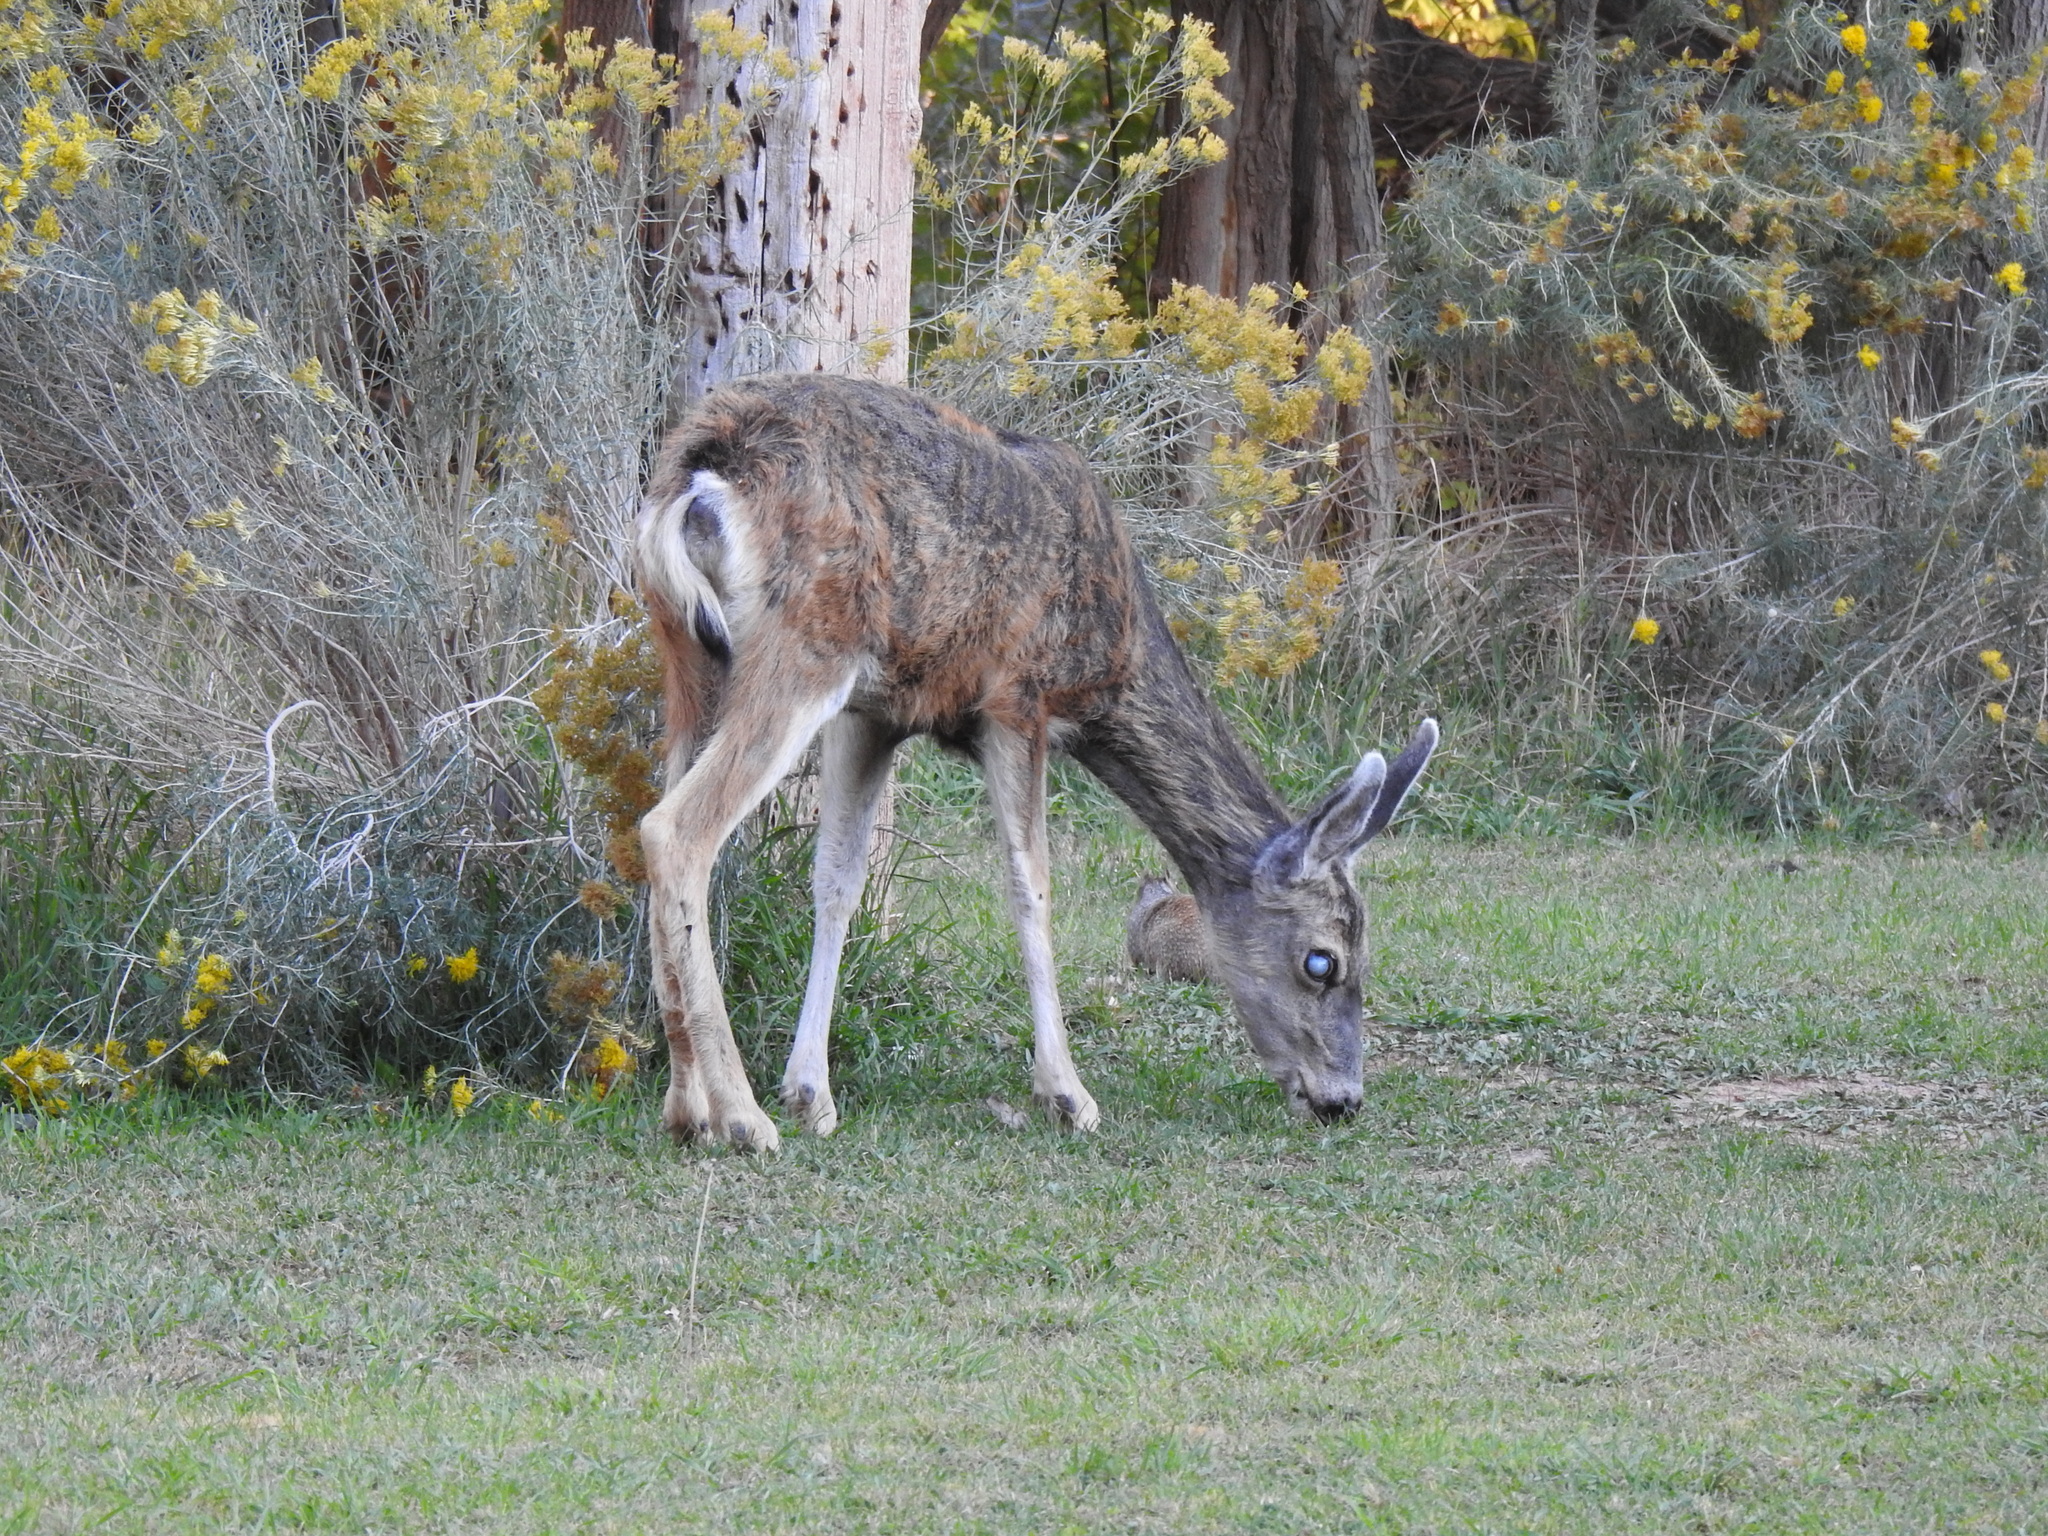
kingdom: Animalia
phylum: Chordata
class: Mammalia
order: Artiodactyla
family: Cervidae
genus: Odocoileus
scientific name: Odocoileus hemionus
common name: Mule deer
